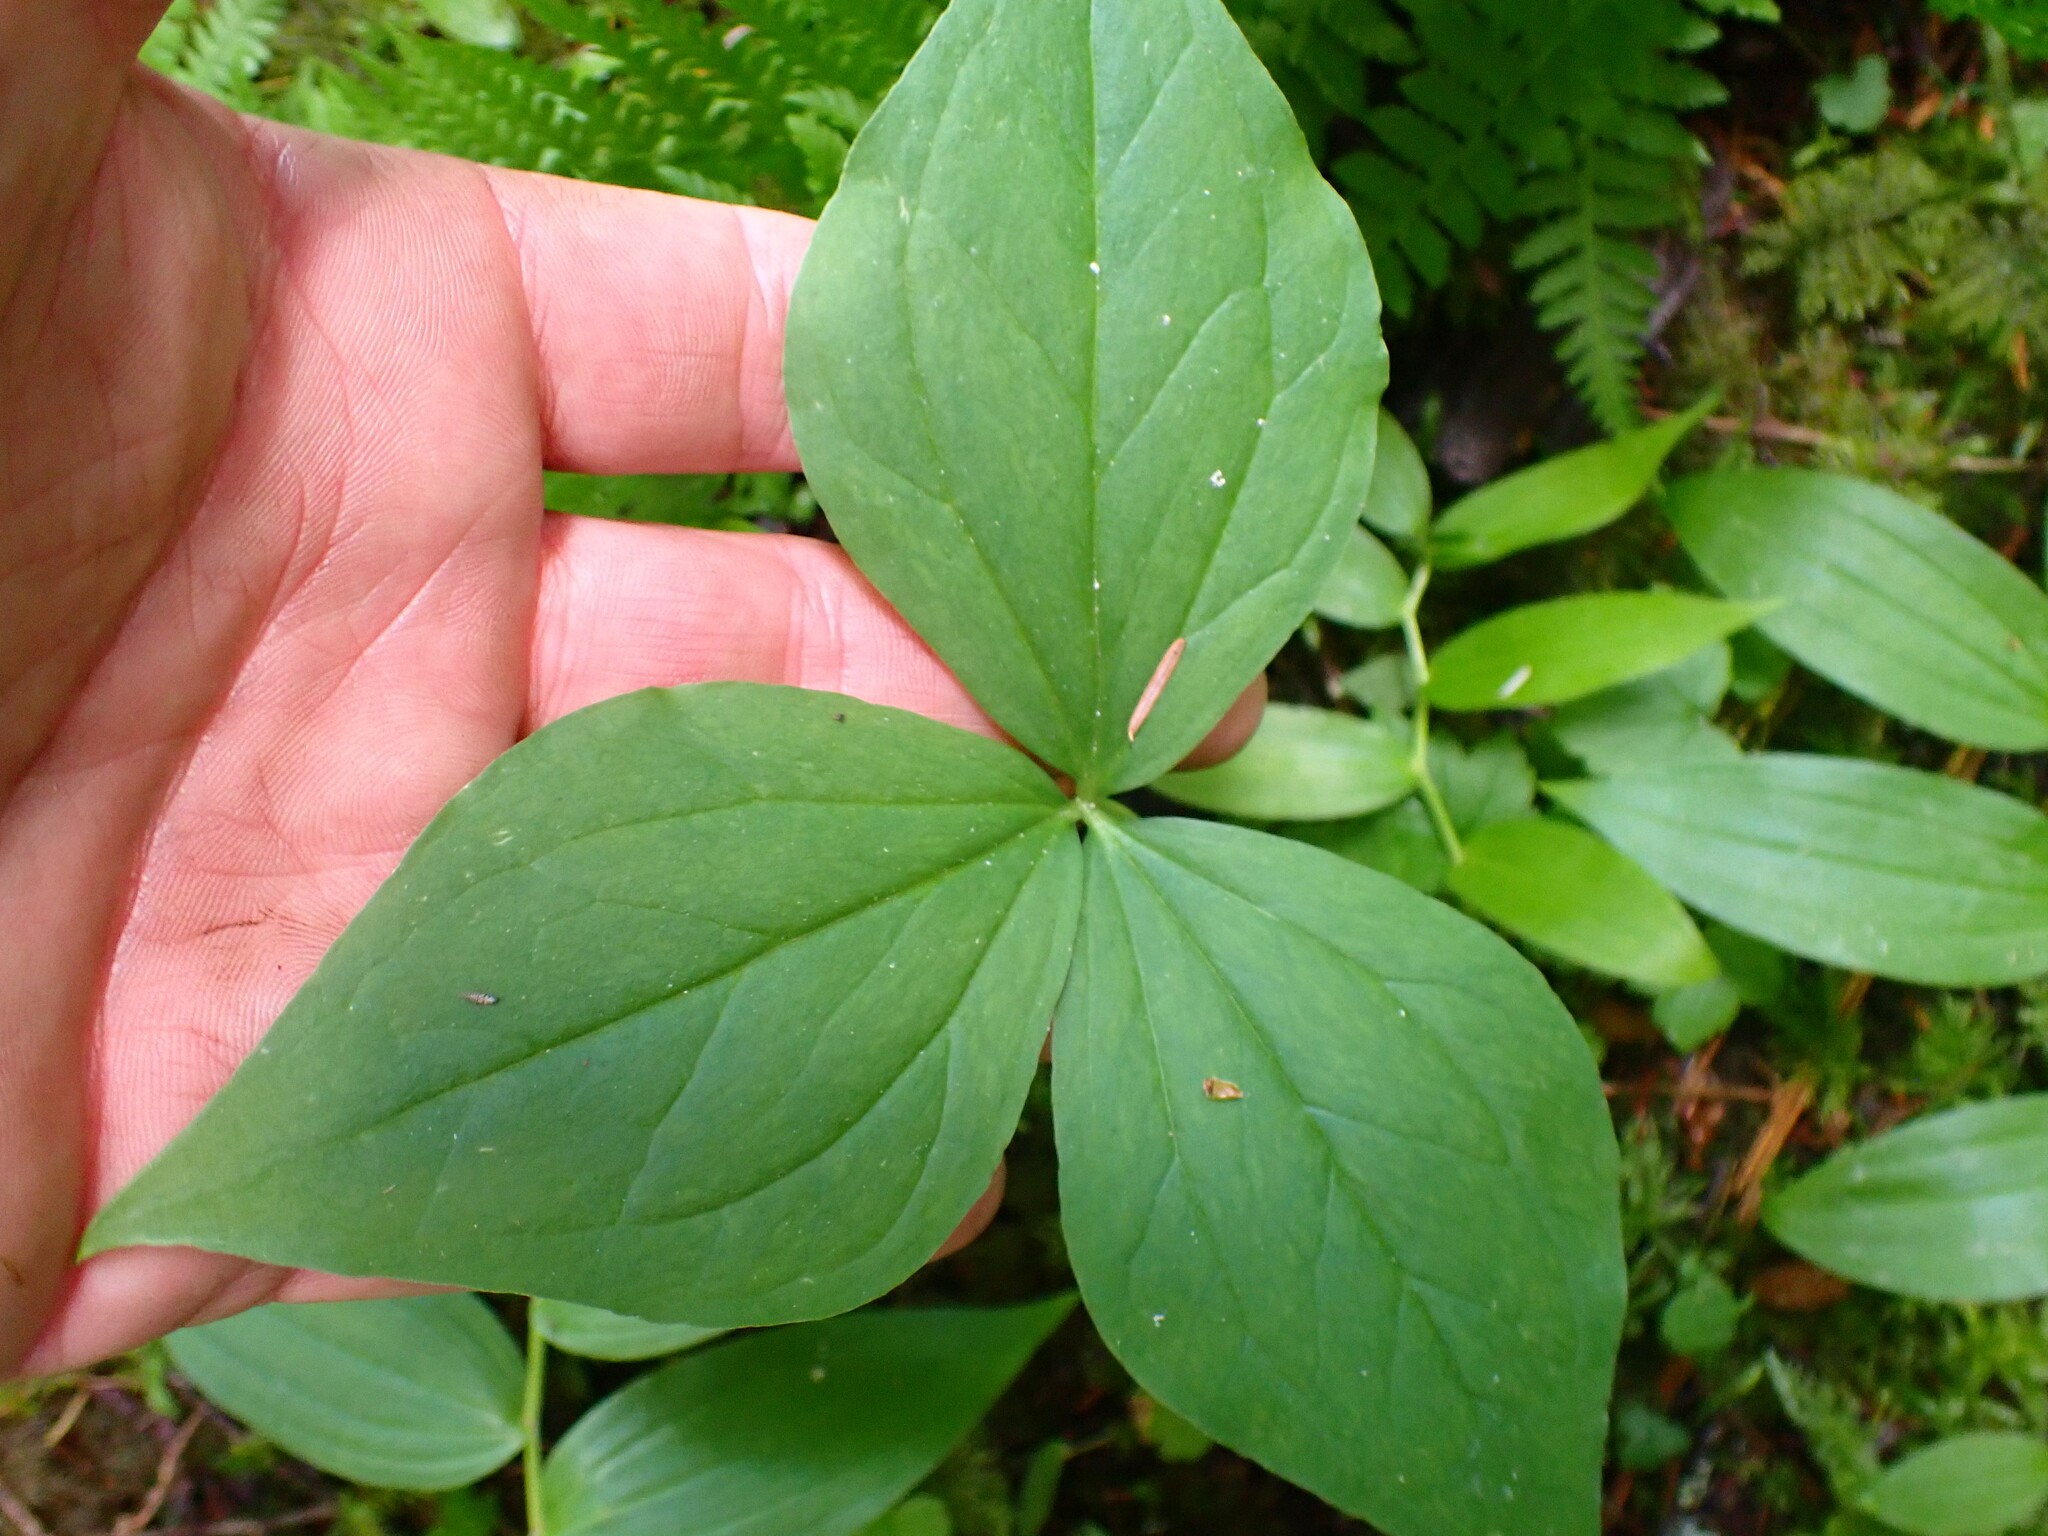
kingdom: Plantae
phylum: Tracheophyta
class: Liliopsida
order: Liliales
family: Melanthiaceae
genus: Trillium
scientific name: Trillium ovatum
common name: Pacific trillium
